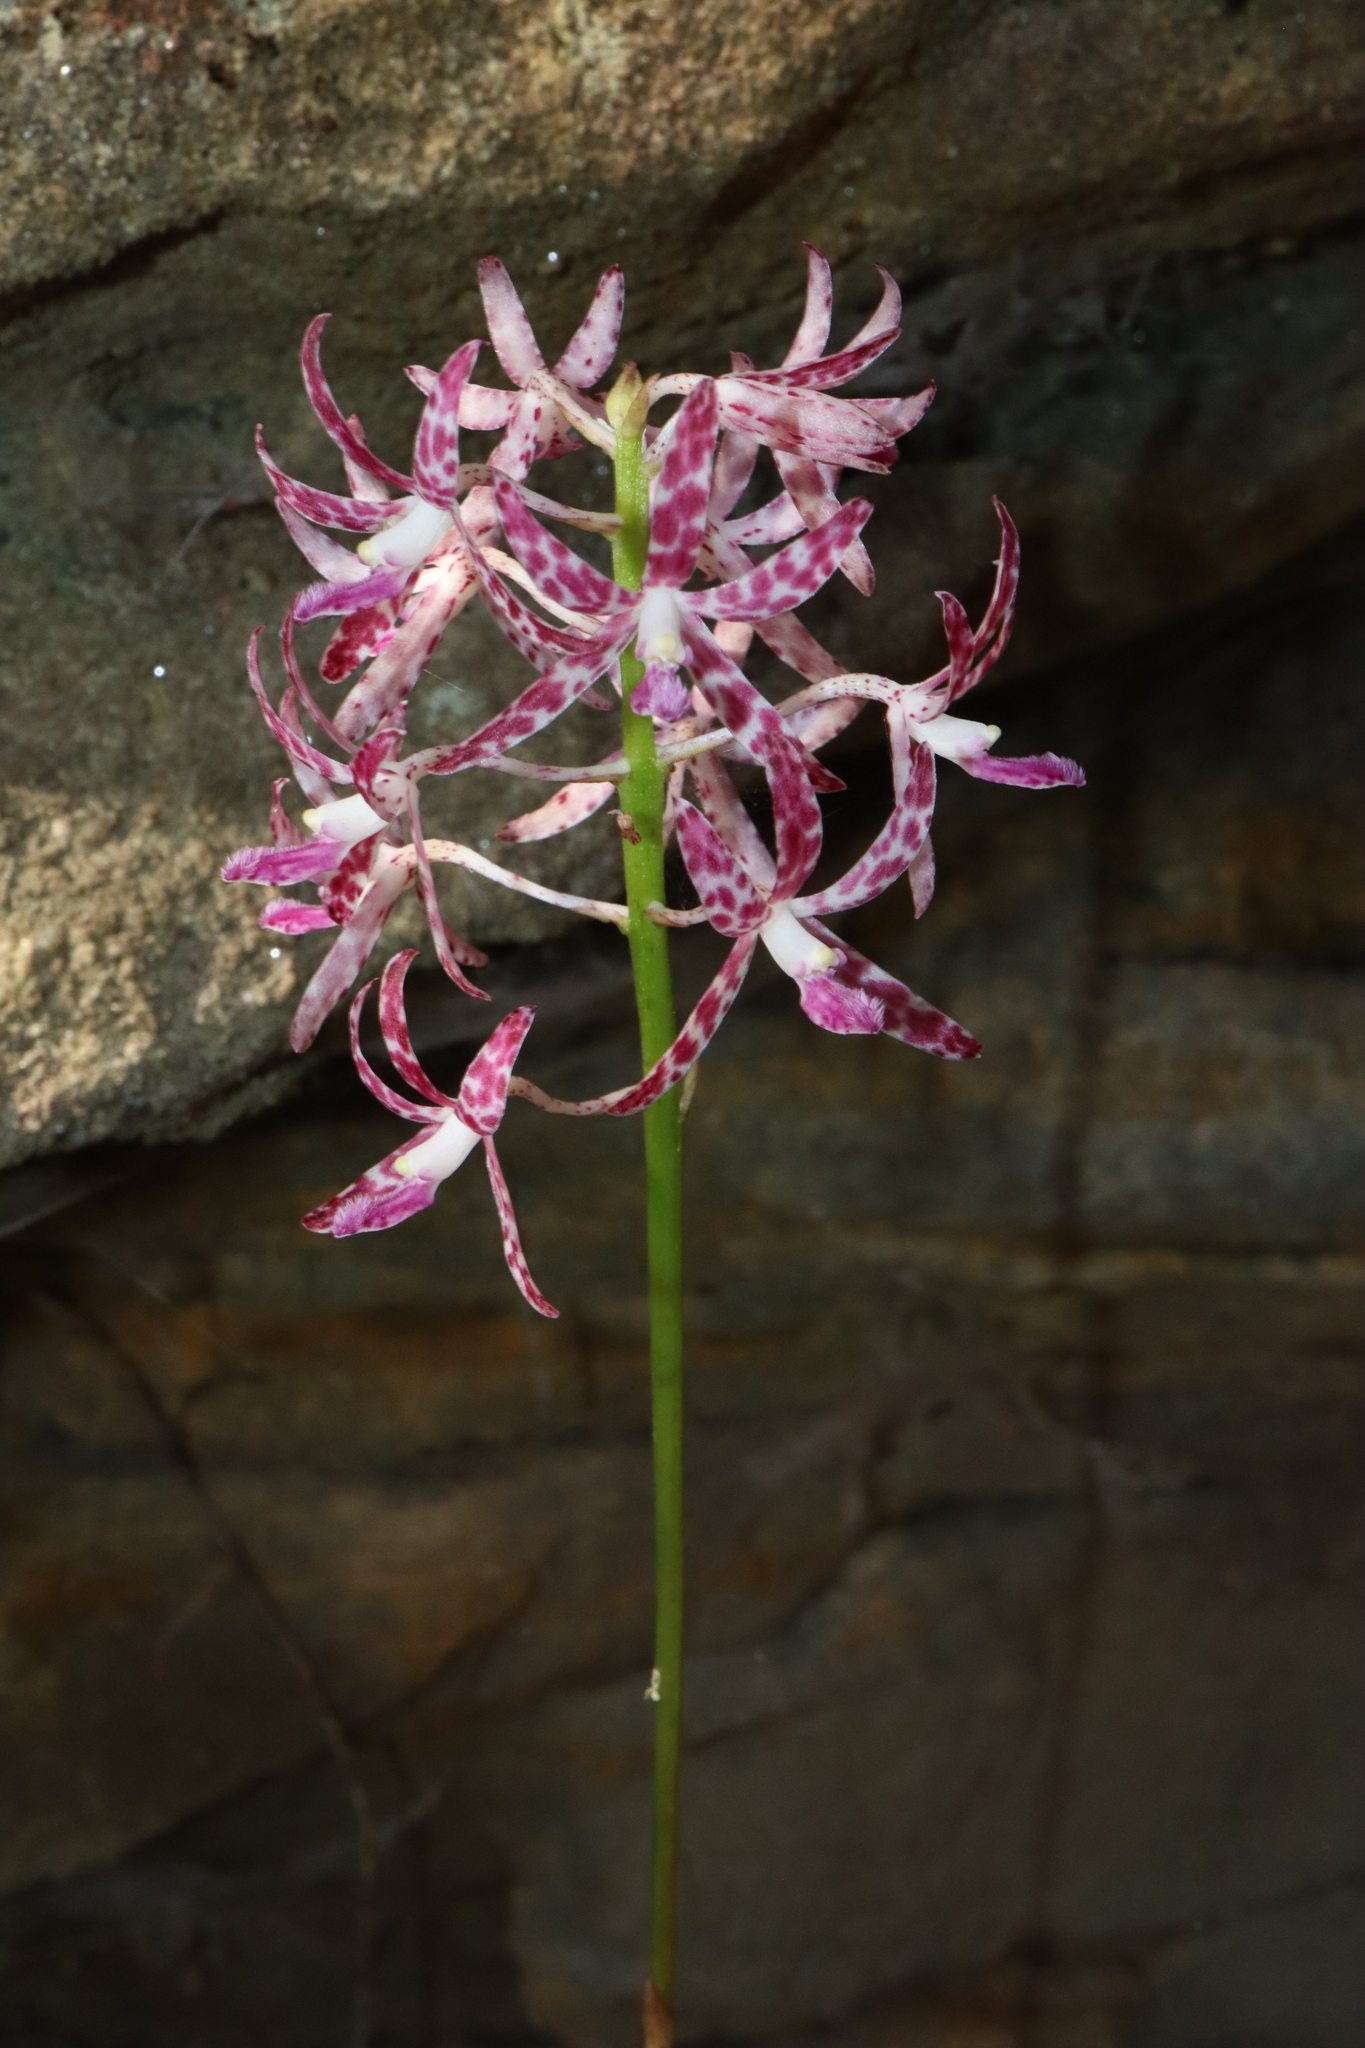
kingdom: Plantae
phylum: Tracheophyta
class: Liliopsida
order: Asparagales
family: Orchidaceae
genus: Dipodium
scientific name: Dipodium variegatum
